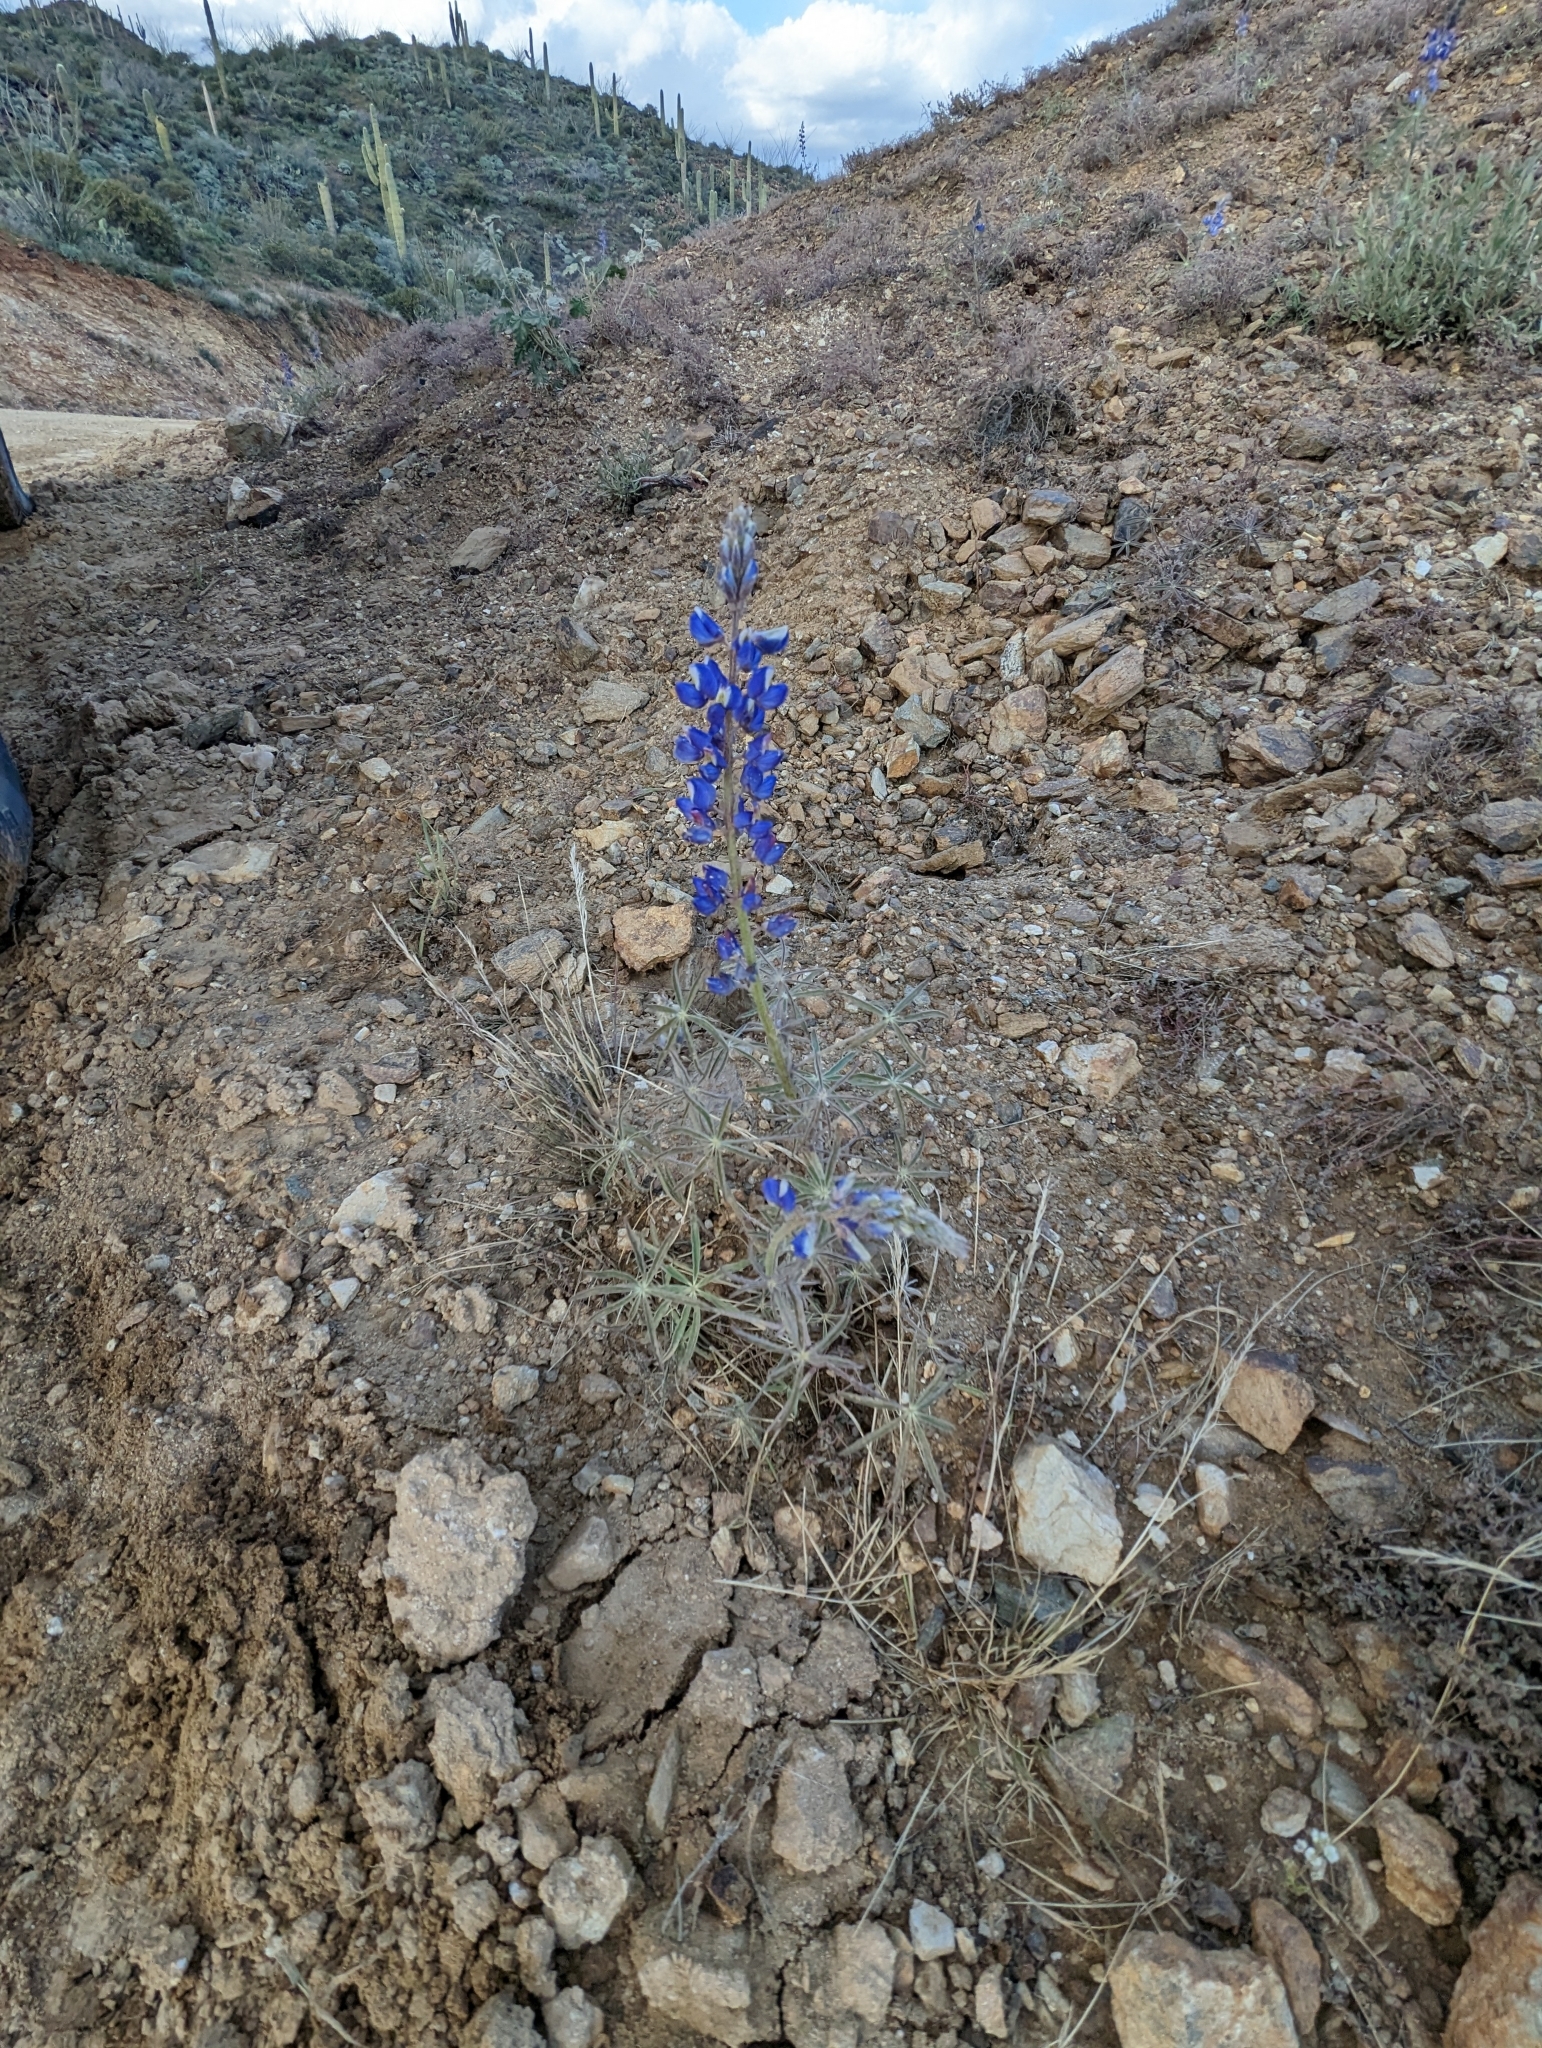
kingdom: Plantae
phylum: Tracheophyta
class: Magnoliopsida
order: Fabales
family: Fabaceae
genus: Lupinus
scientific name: Lupinus sparsiflorus
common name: Coulter's lupine
